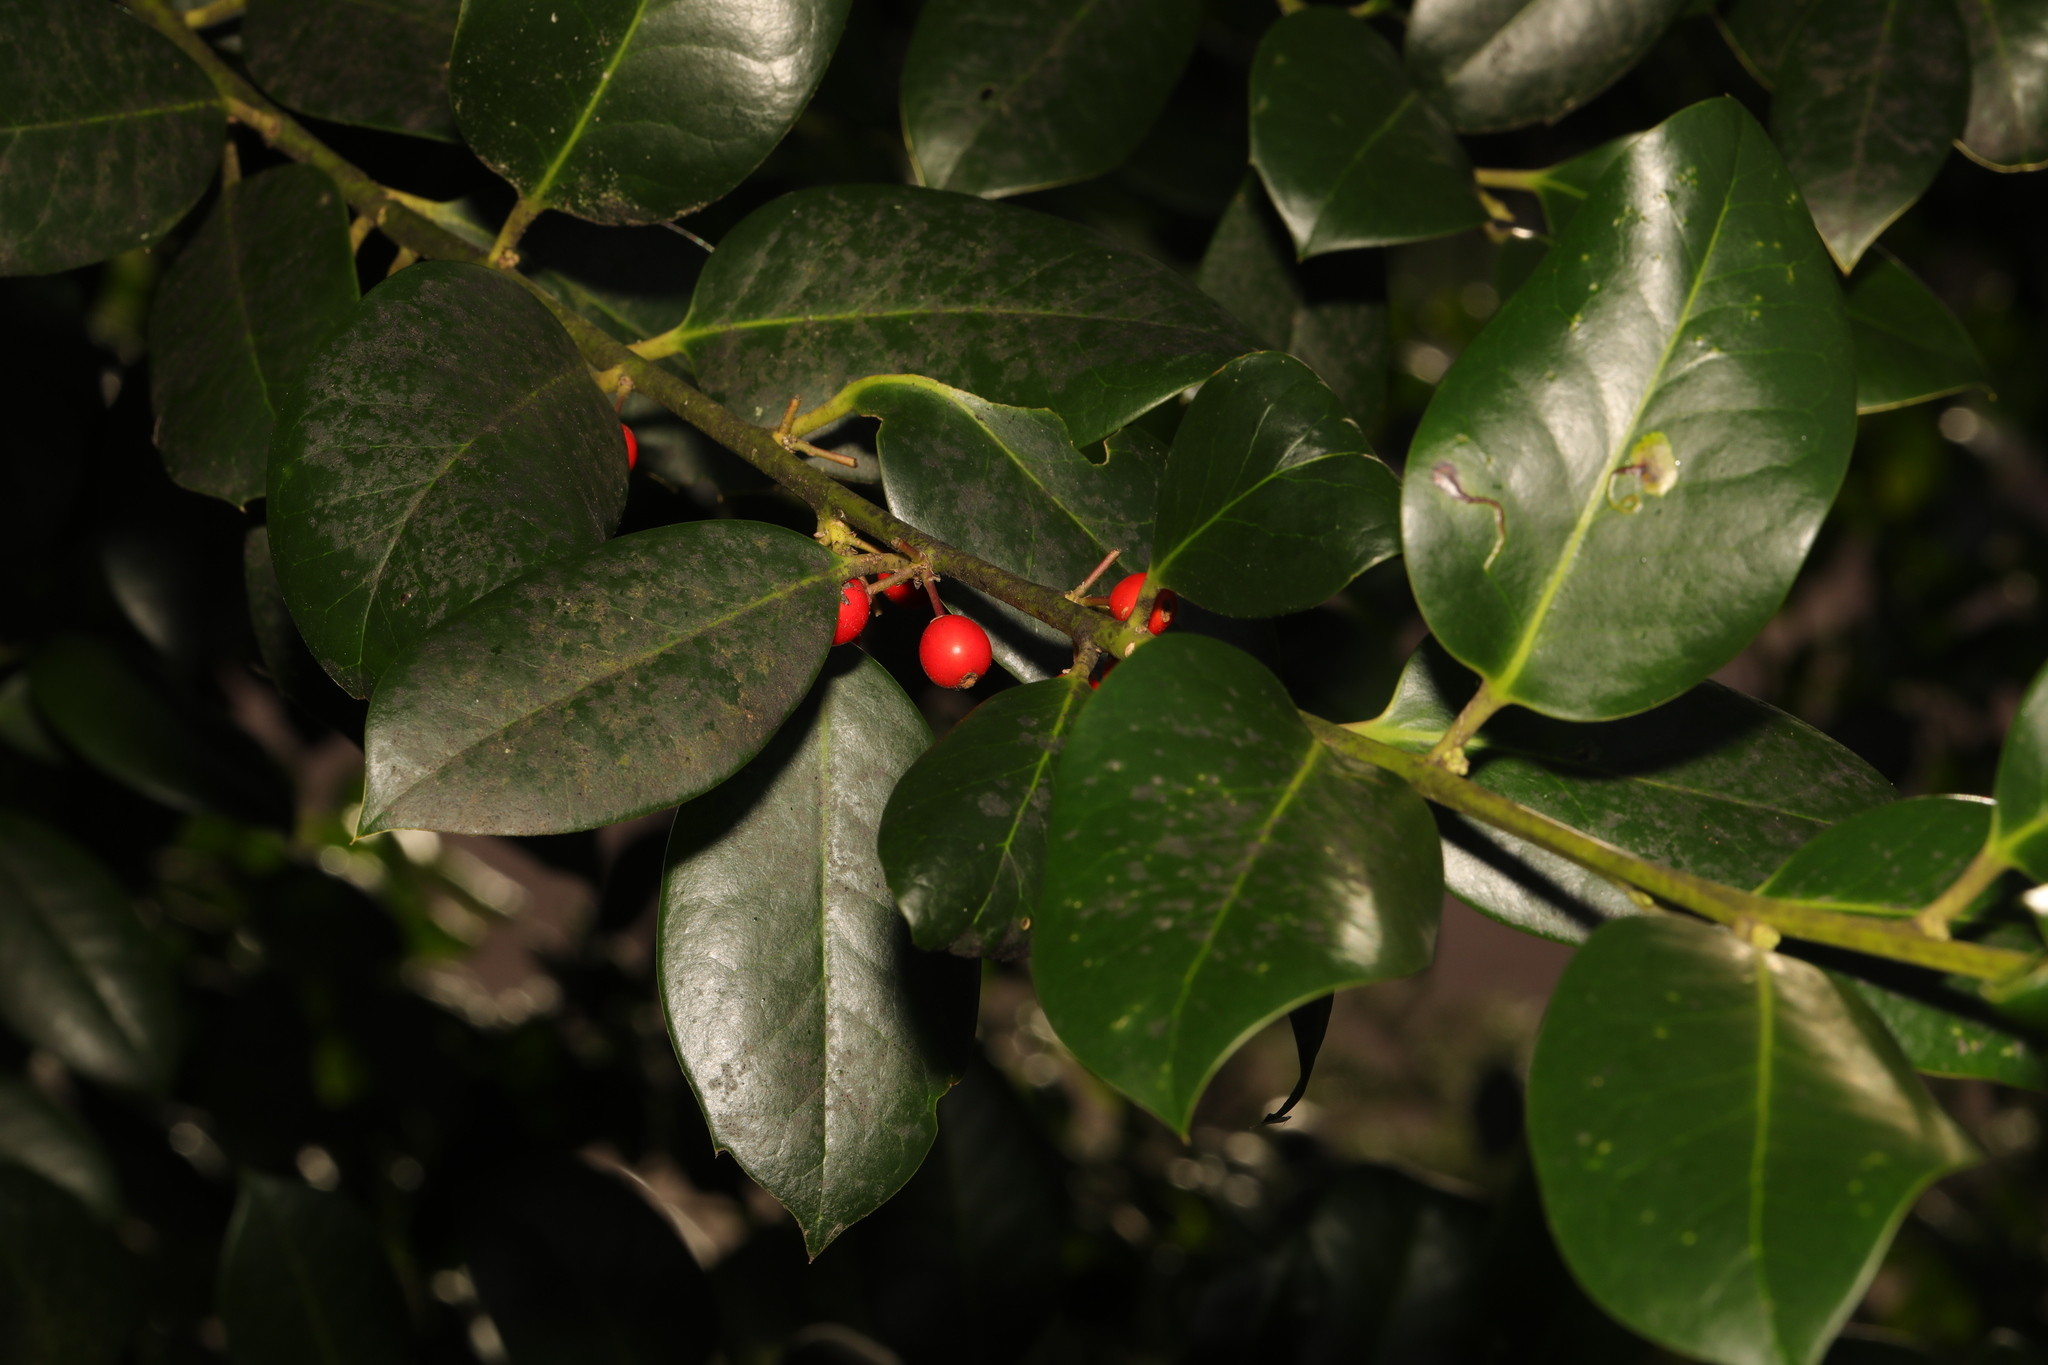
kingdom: Plantae
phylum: Tracheophyta
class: Magnoliopsida
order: Aquifoliales
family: Aquifoliaceae
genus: Ilex
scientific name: Ilex aquifolium
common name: English holly
